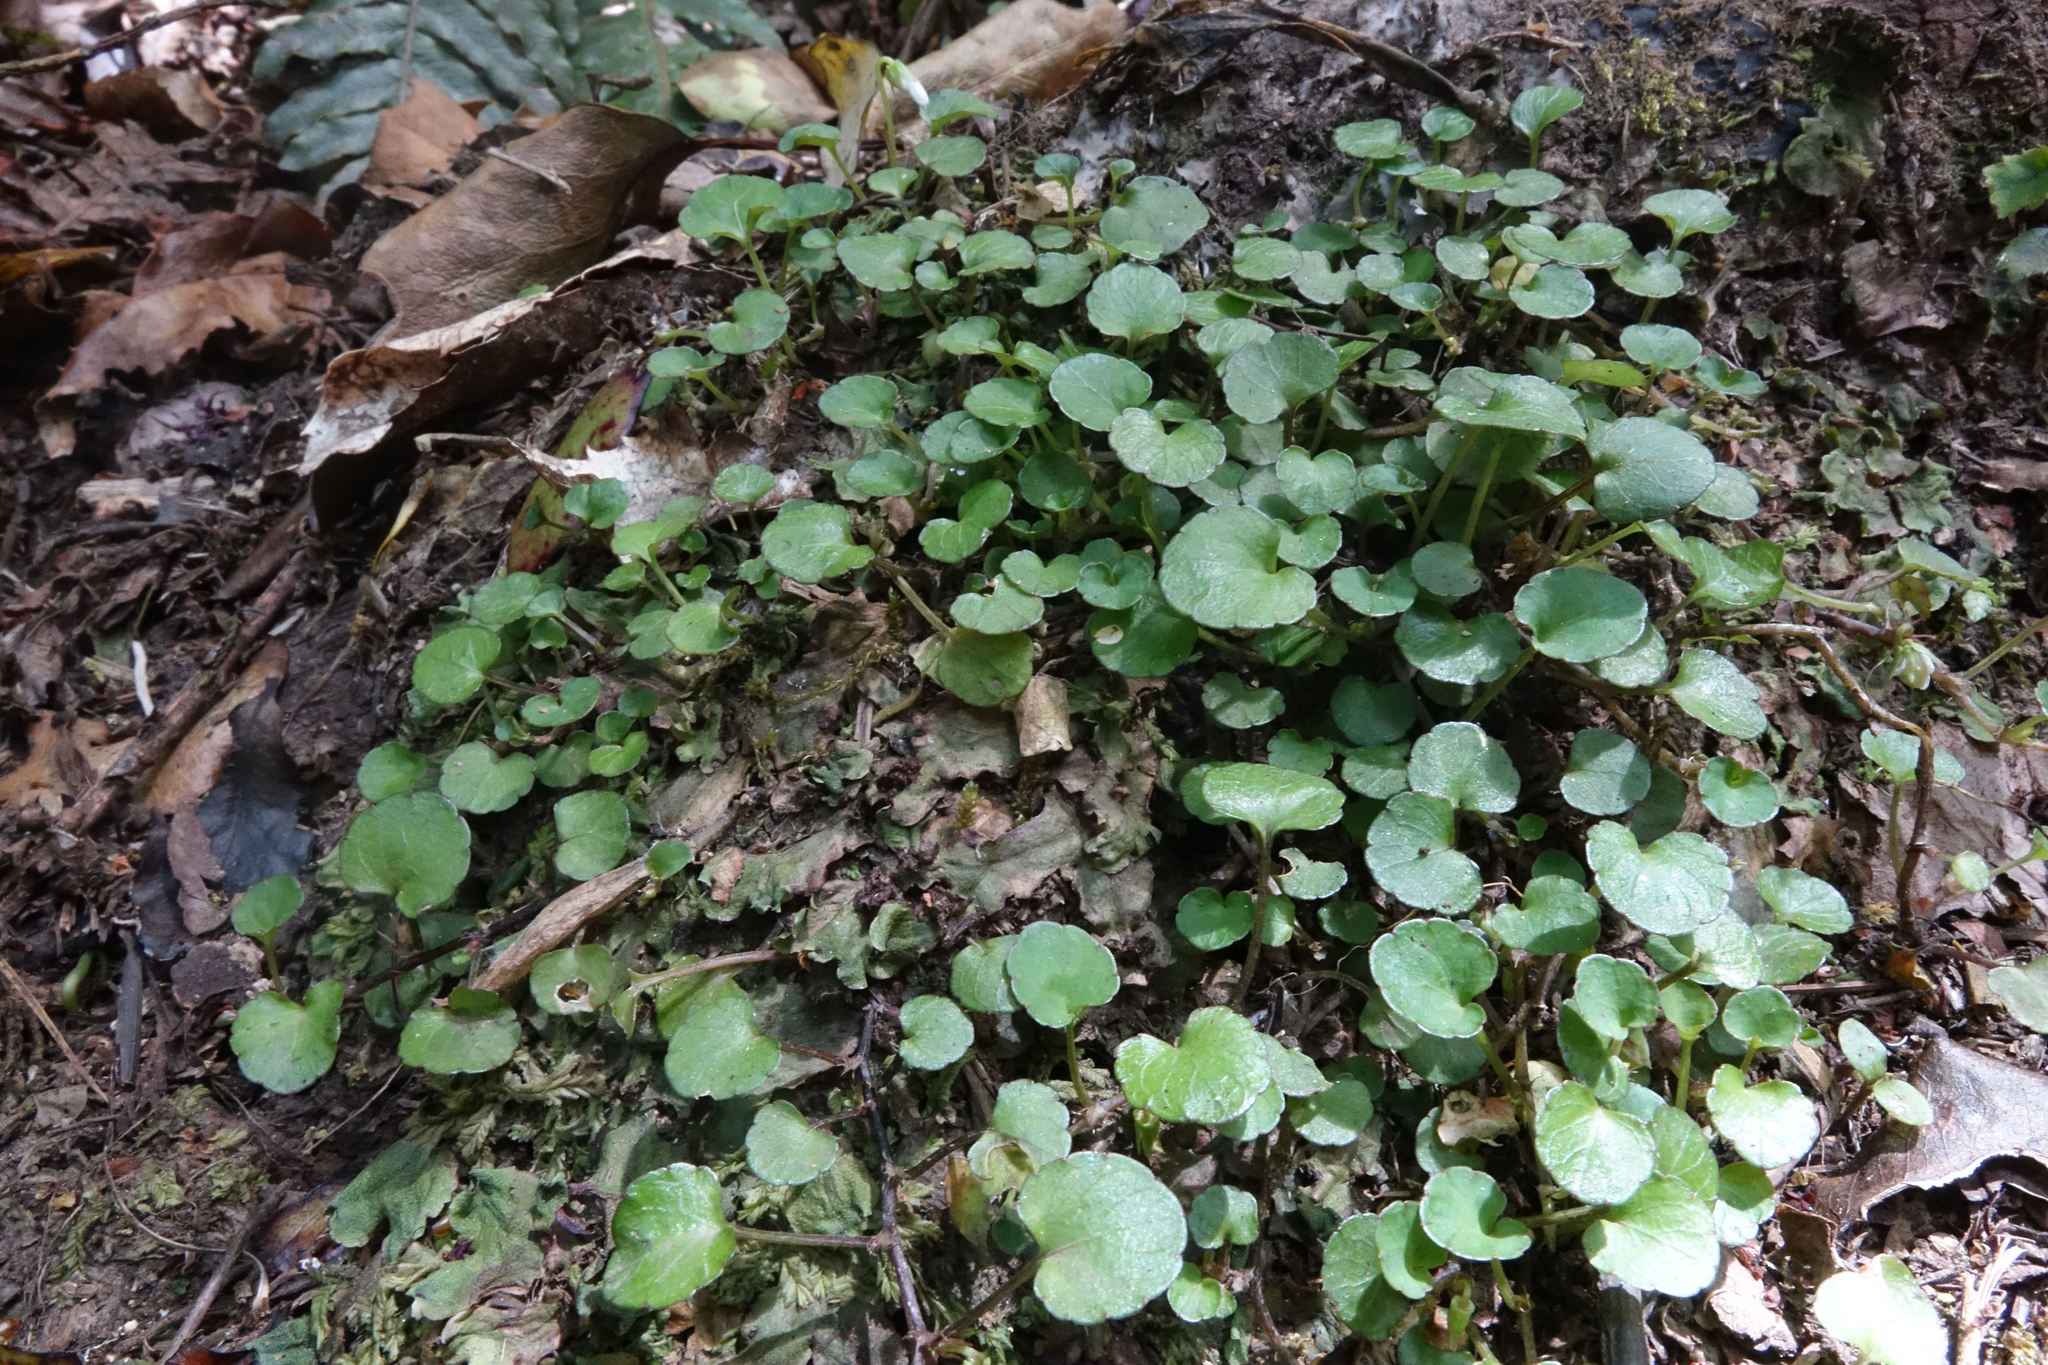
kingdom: Plantae
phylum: Tracheophyta
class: Magnoliopsida
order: Malpighiales
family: Violaceae
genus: Viola
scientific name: Viola filicaulis
